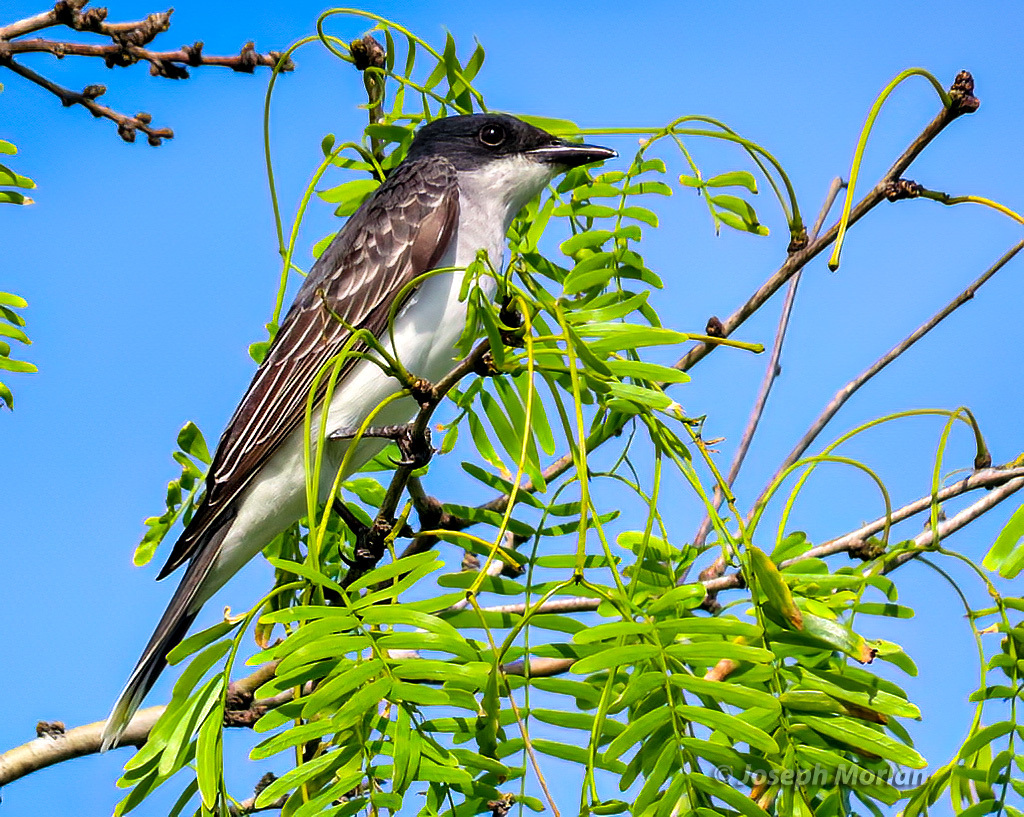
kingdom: Animalia
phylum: Chordata
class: Aves
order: Passeriformes
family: Tyrannidae
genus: Tyrannus
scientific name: Tyrannus tyrannus
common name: Eastern kingbird
